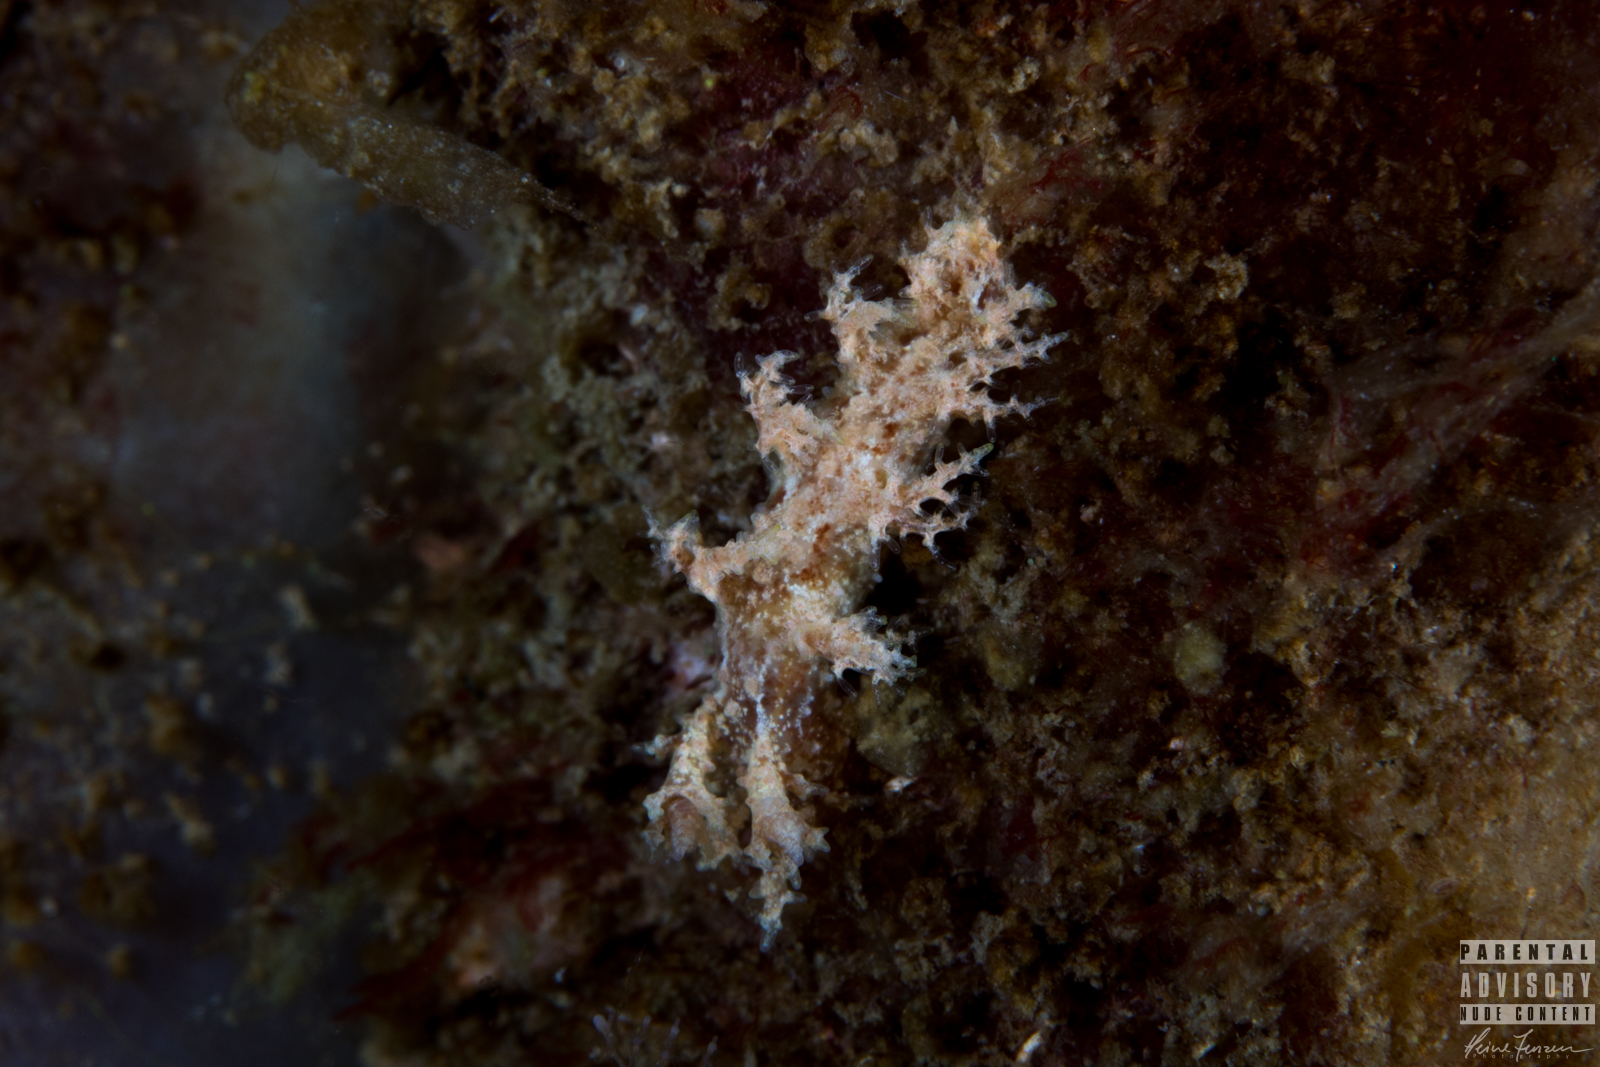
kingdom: Animalia
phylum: Mollusca
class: Gastropoda
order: Nudibranchia
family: Dendronotidae
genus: Dendronotus
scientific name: Dendronotus frondosus
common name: Bushy-backed nudibranch
